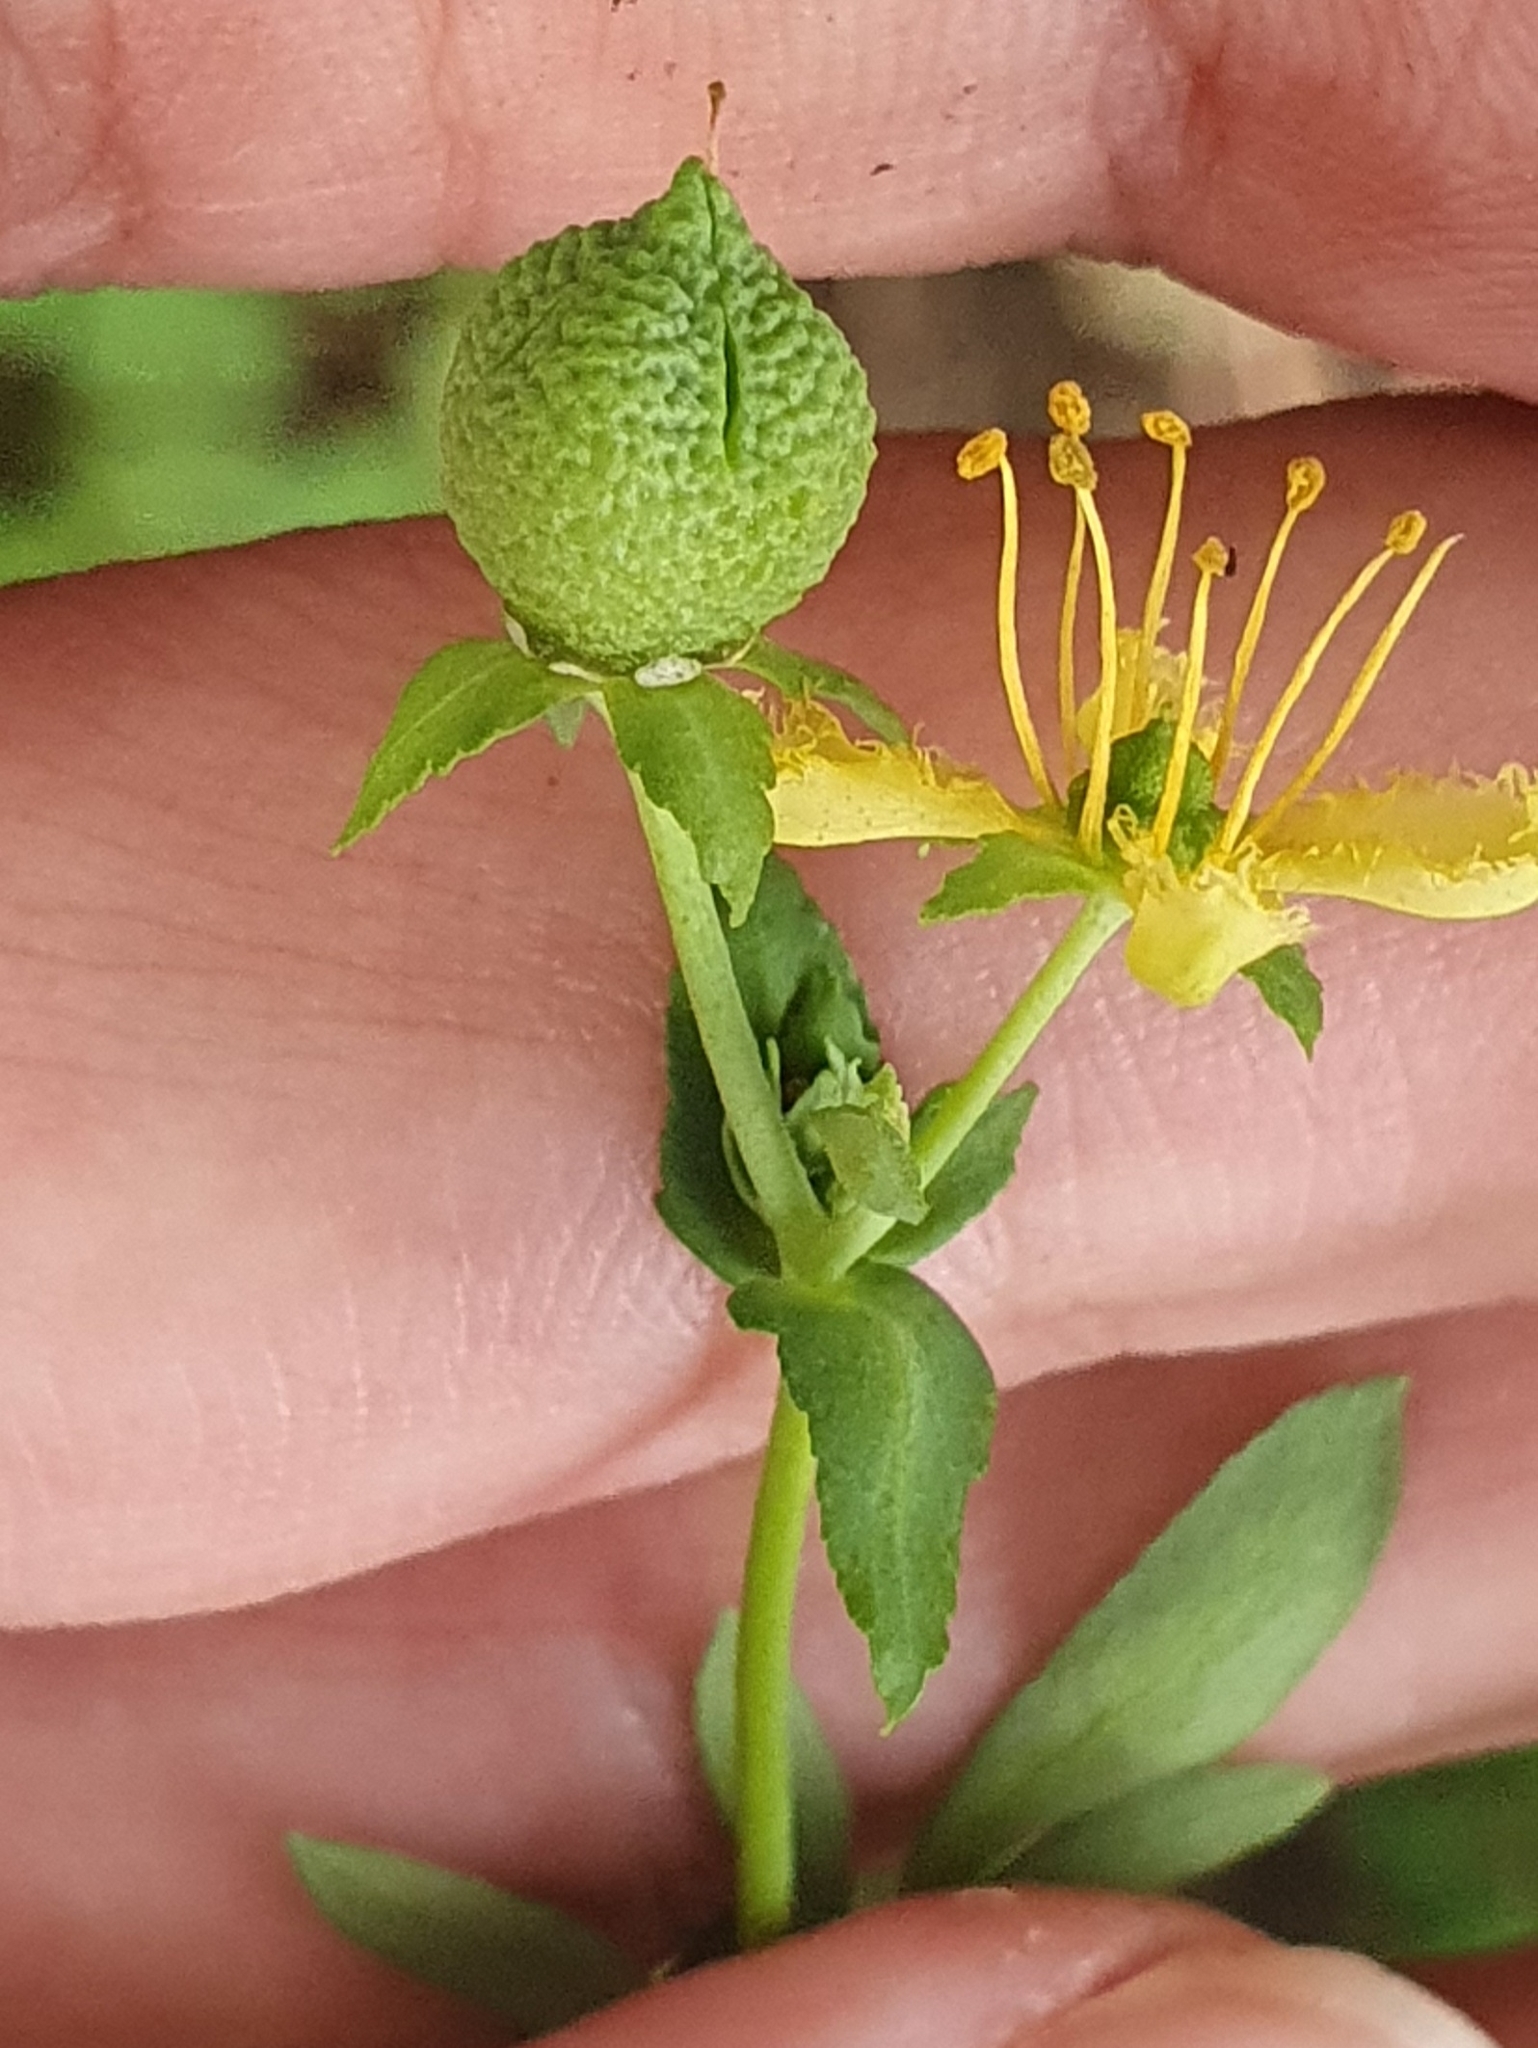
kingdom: Plantae
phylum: Tracheophyta
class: Magnoliopsida
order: Sapindales
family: Rutaceae
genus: Ruta
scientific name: Ruta chalepensis
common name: Fringed rue
